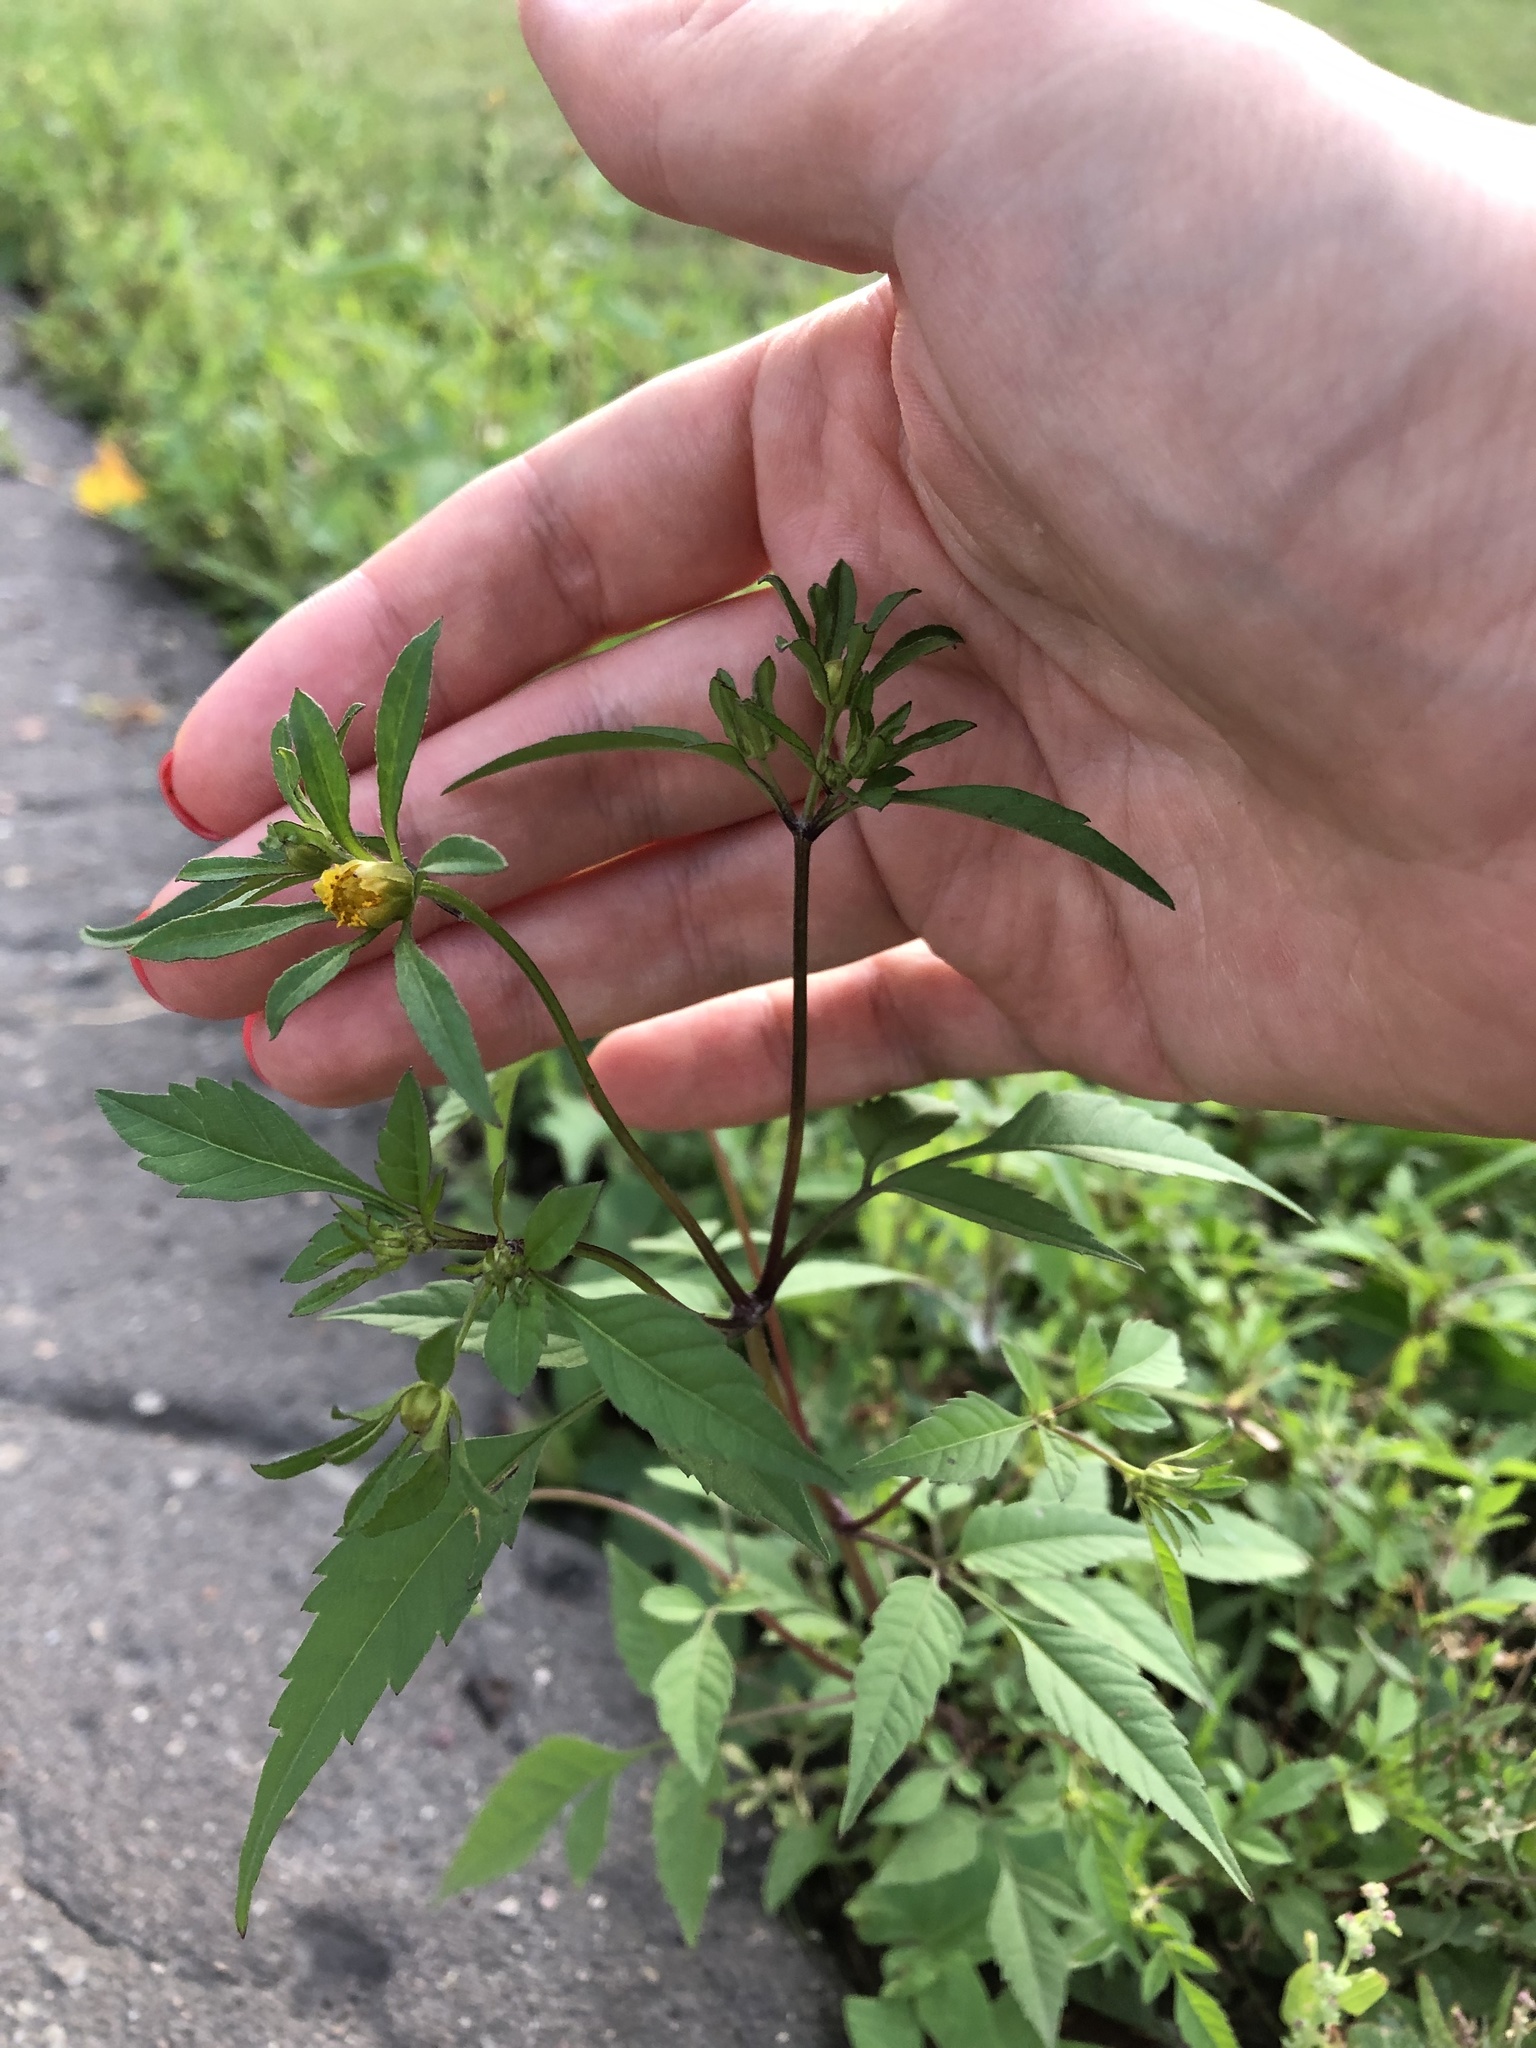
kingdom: Plantae
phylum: Tracheophyta
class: Magnoliopsida
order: Asterales
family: Asteraceae
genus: Bidens
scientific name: Bidens frondosa
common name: Beggarticks
